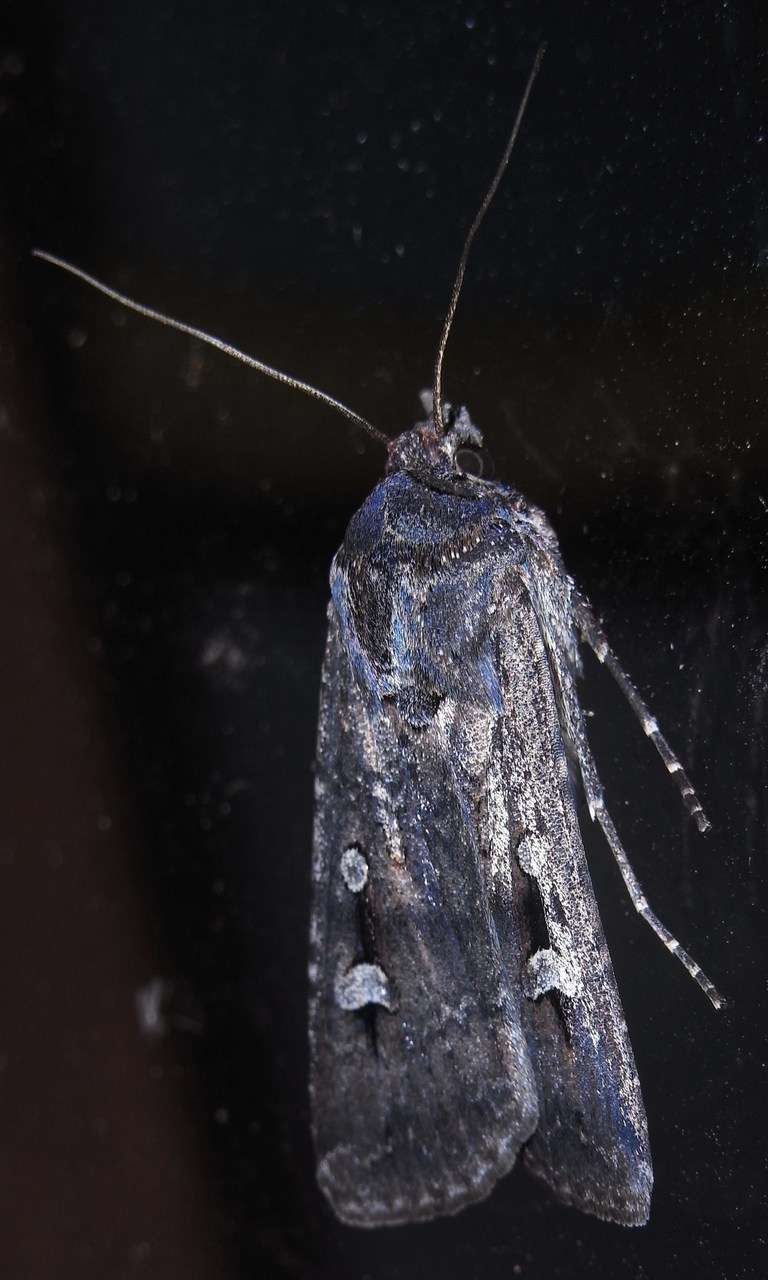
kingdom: Animalia
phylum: Arthropoda
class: Insecta
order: Lepidoptera
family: Noctuidae
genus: Agrotis
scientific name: Agrotis infusa
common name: Bogong moth
